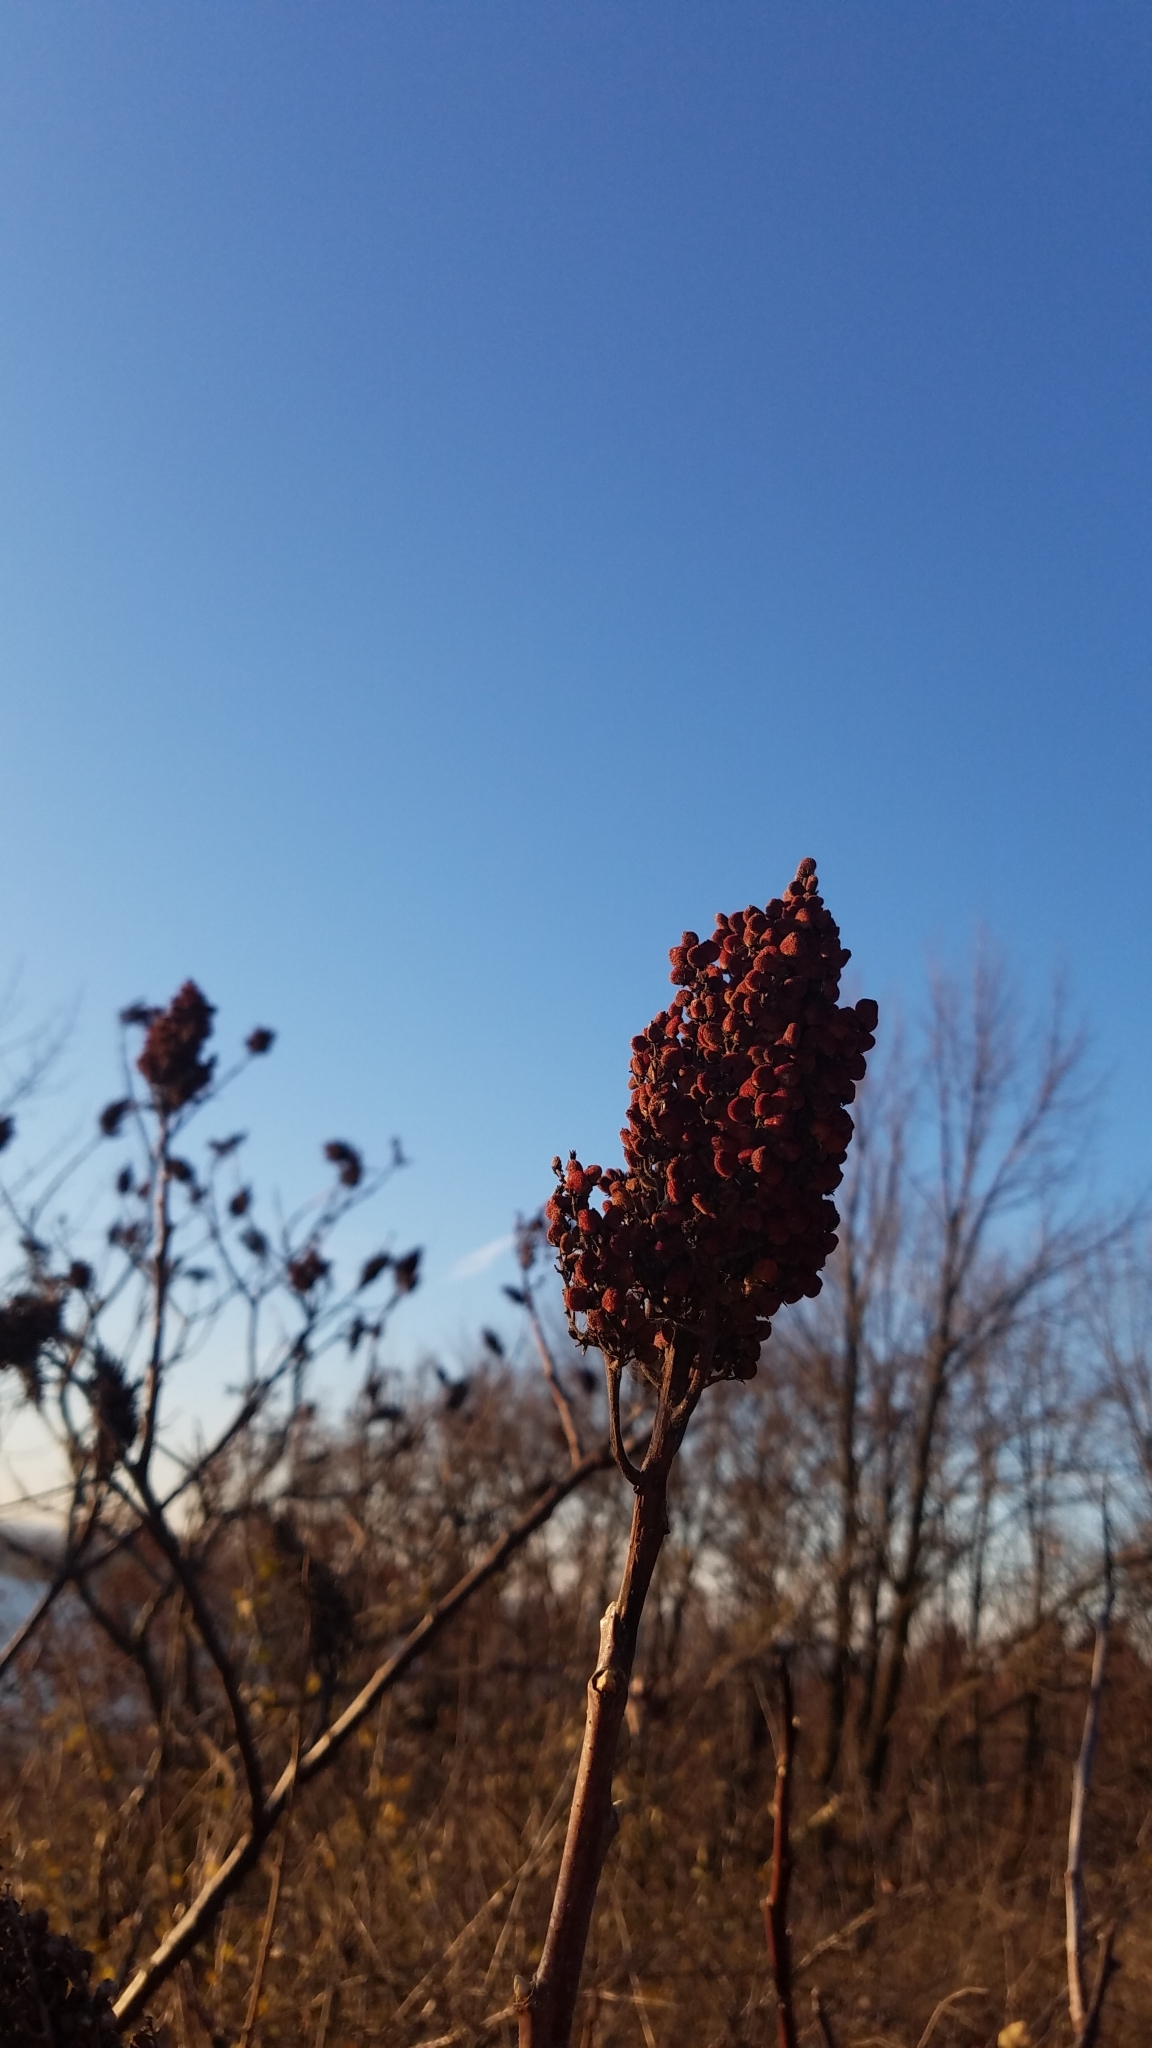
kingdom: Plantae
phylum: Tracheophyta
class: Magnoliopsida
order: Sapindales
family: Anacardiaceae
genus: Rhus
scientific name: Rhus glabra
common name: Scarlet sumac
